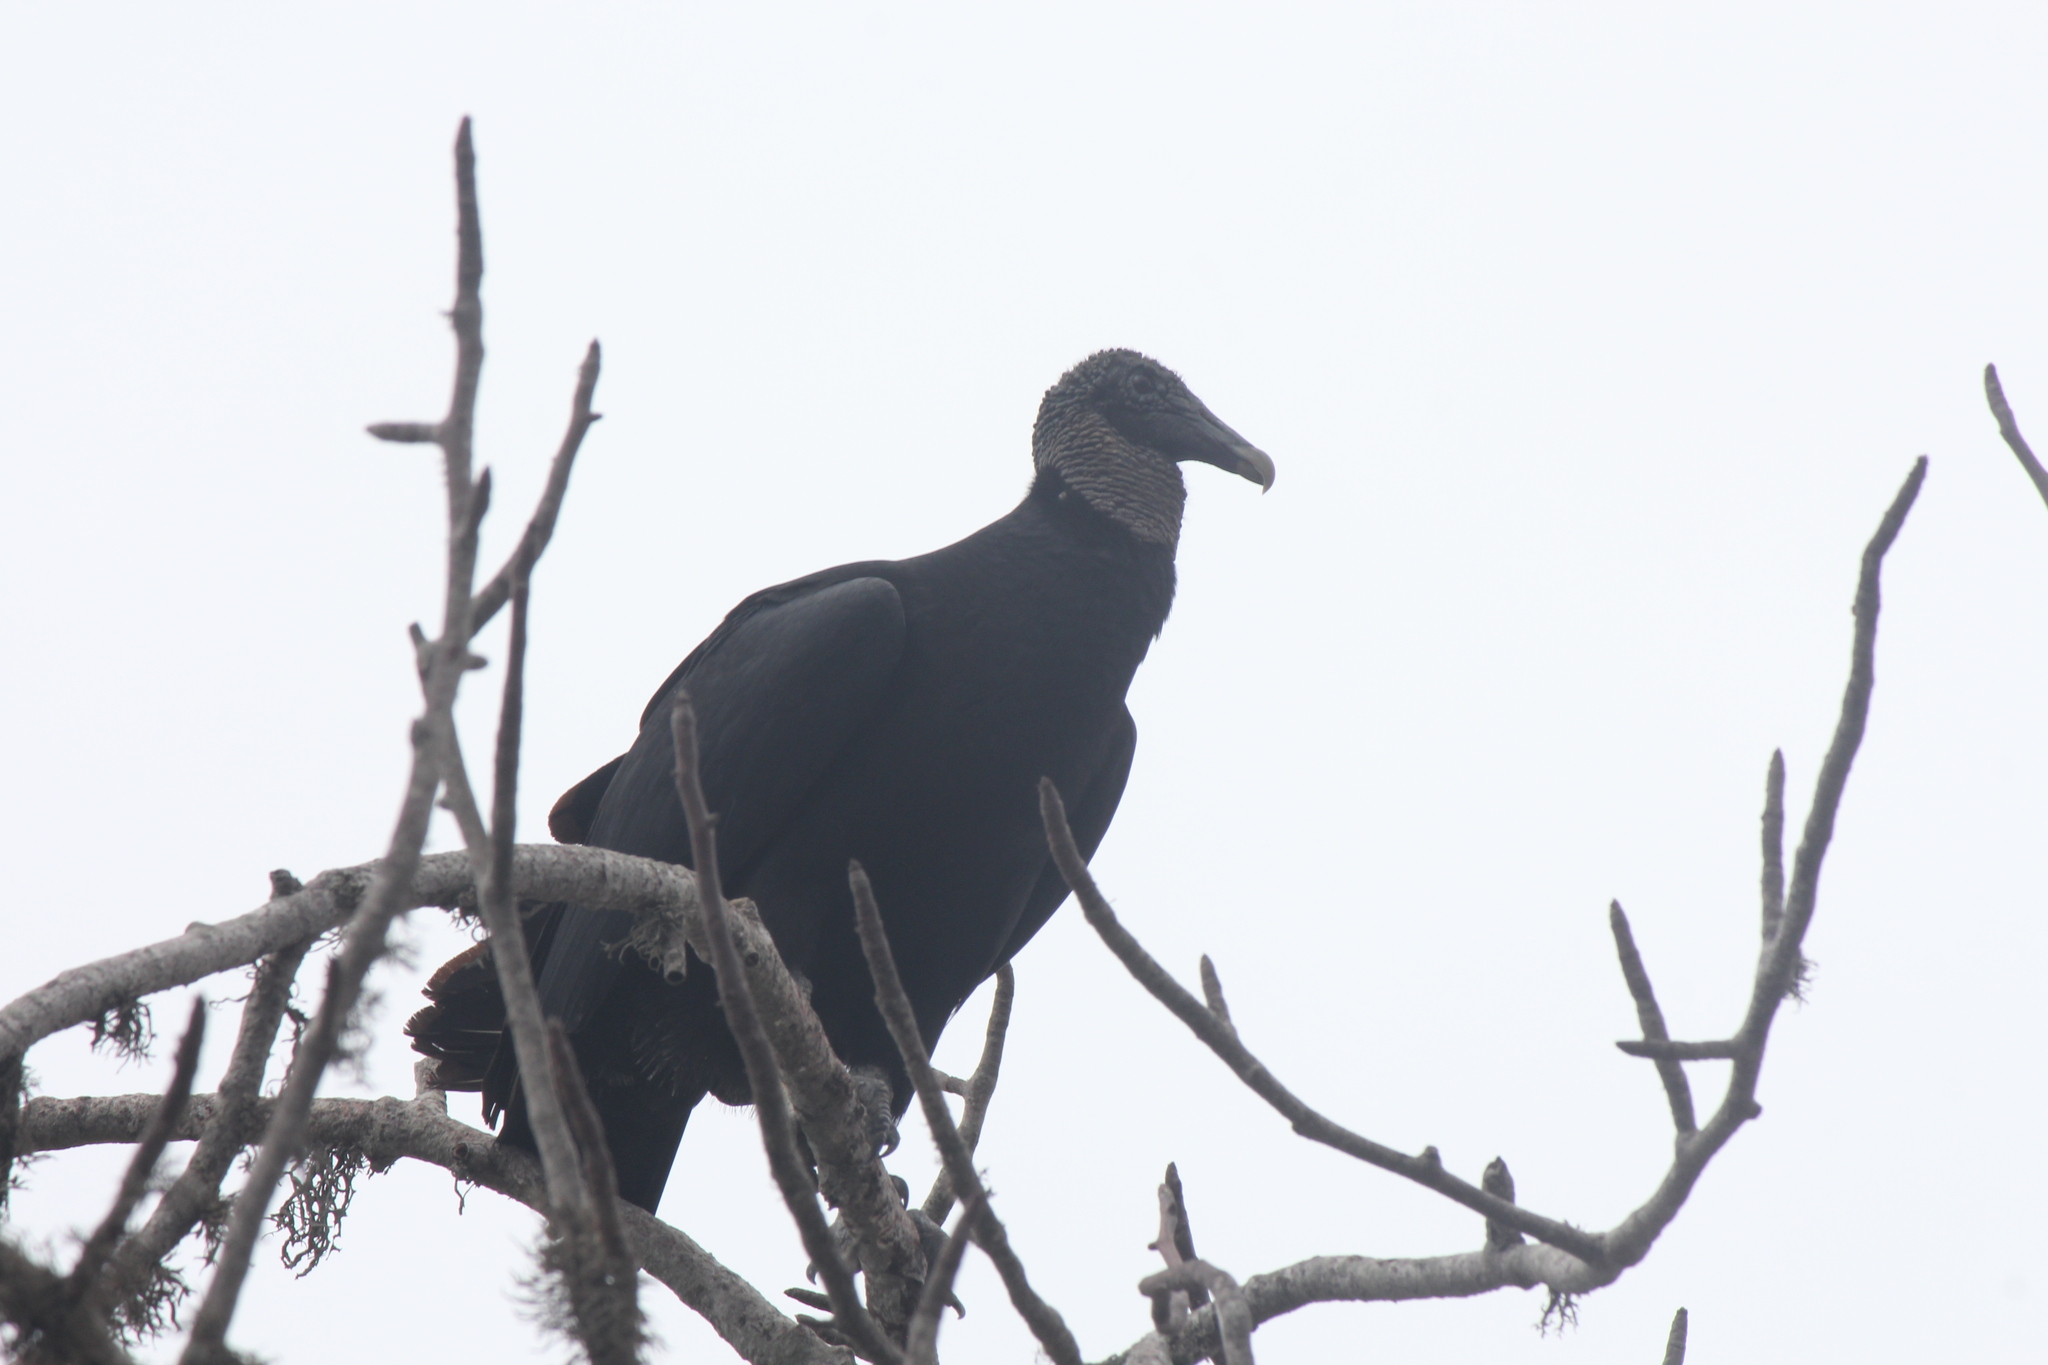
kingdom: Animalia
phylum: Chordata
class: Aves
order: Accipitriformes
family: Cathartidae
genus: Coragyps
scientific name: Coragyps atratus
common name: Black vulture
